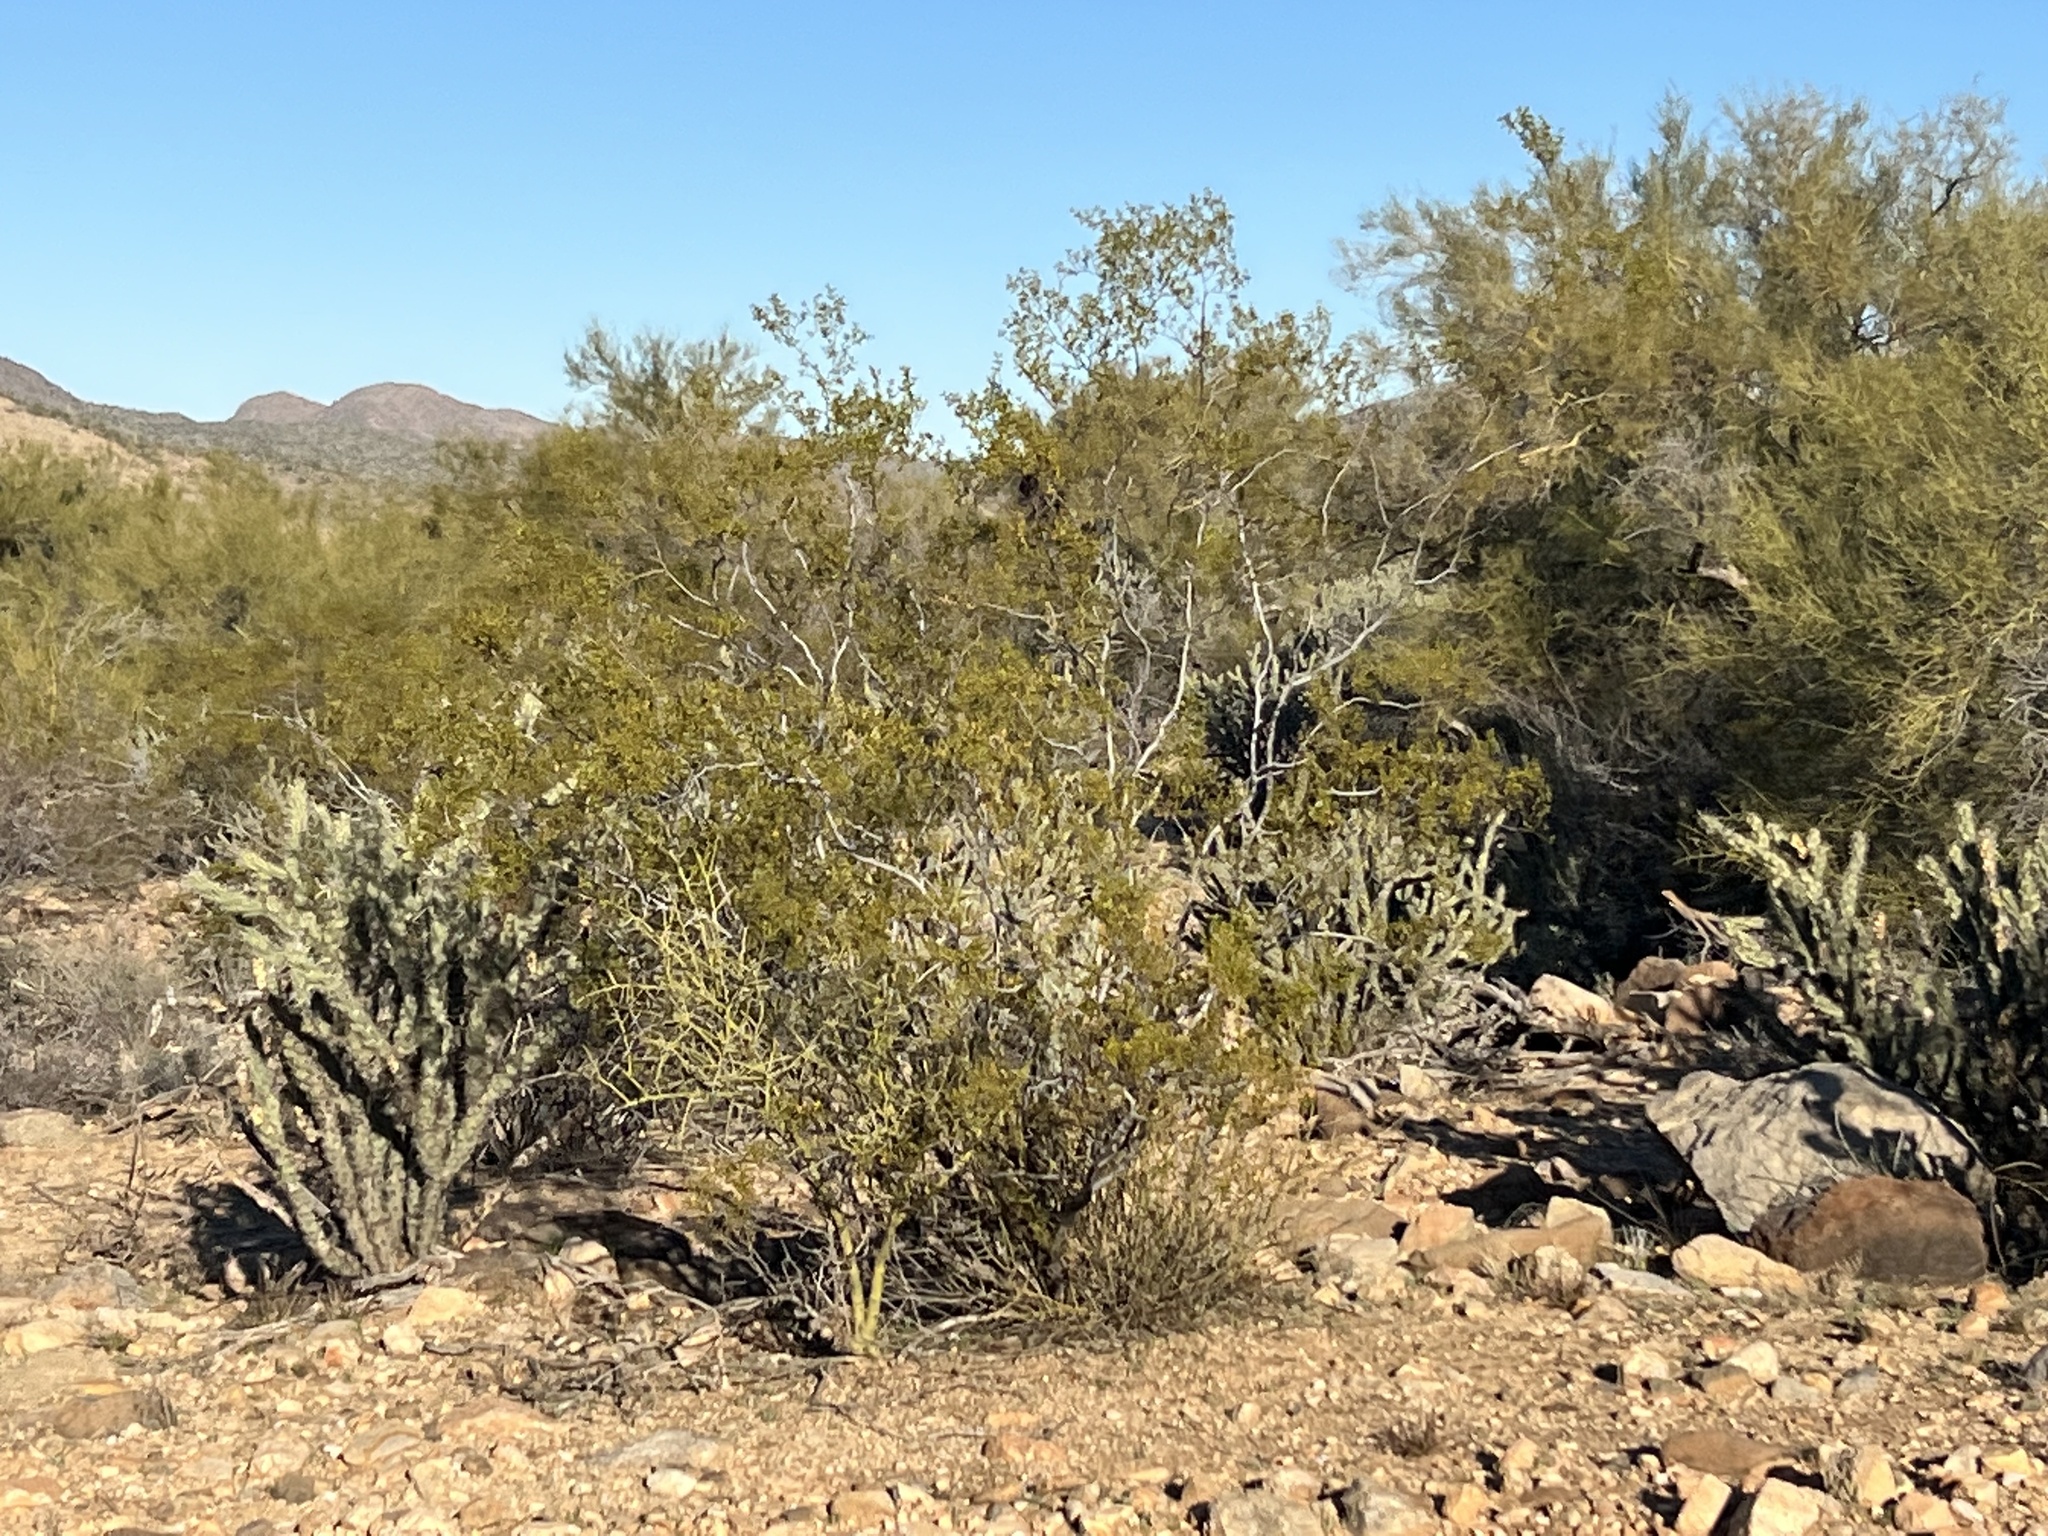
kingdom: Plantae
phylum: Tracheophyta
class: Magnoliopsida
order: Zygophyllales
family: Zygophyllaceae
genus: Larrea
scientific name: Larrea tridentata
